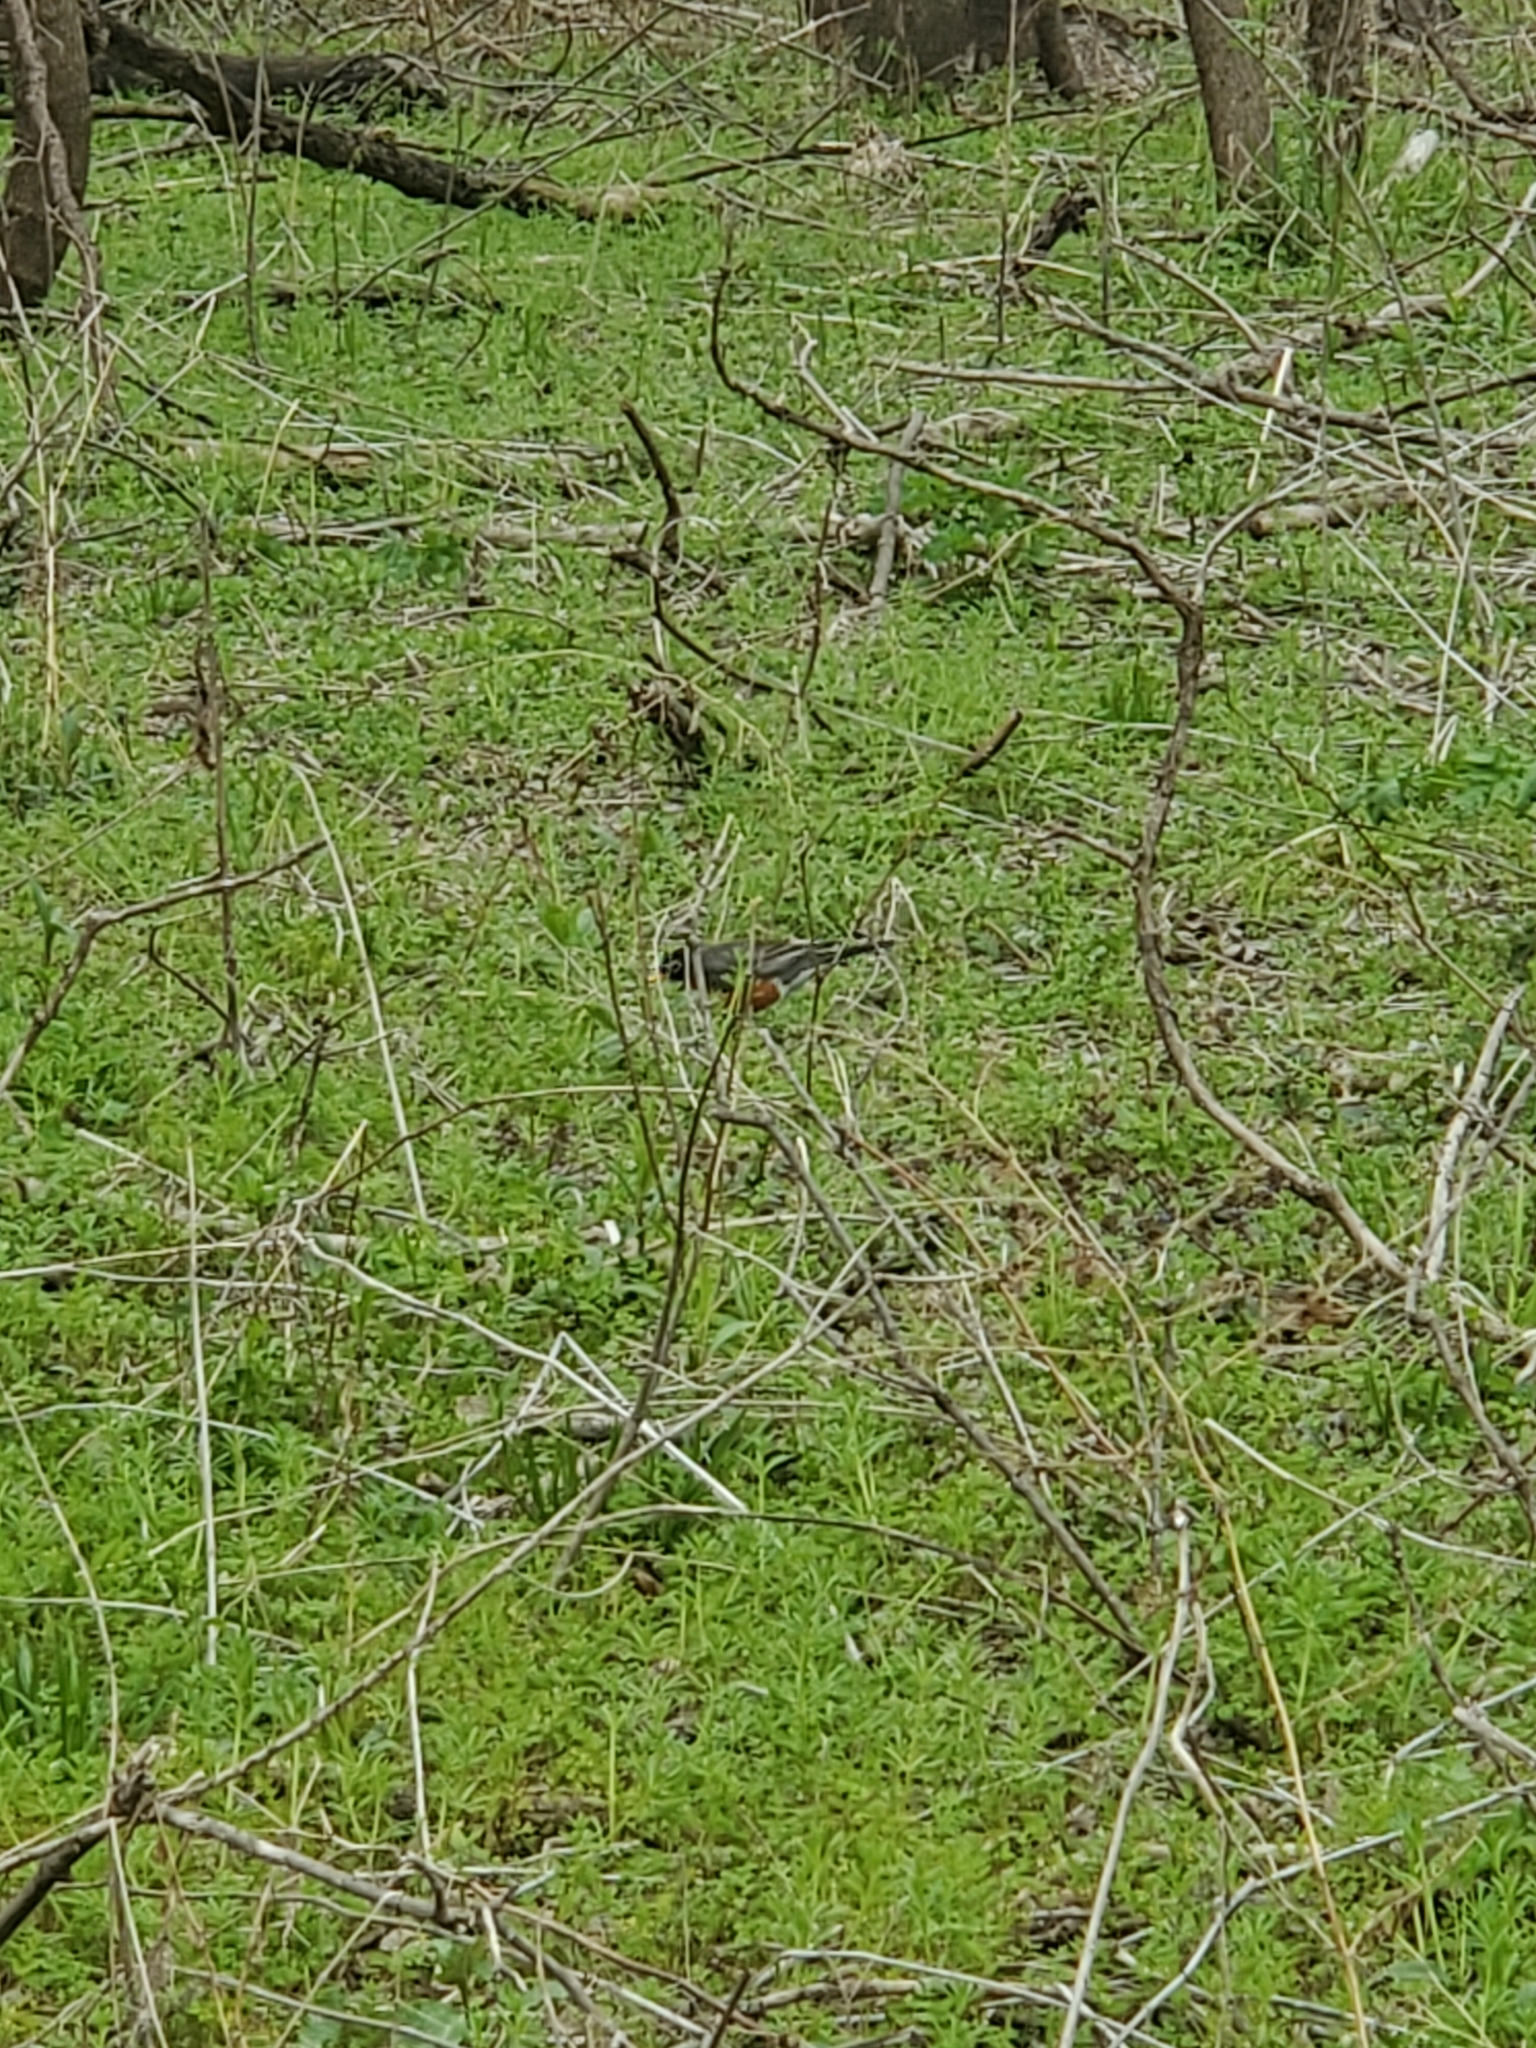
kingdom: Animalia
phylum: Chordata
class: Aves
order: Passeriformes
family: Turdidae
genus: Turdus
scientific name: Turdus migratorius
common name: American robin
